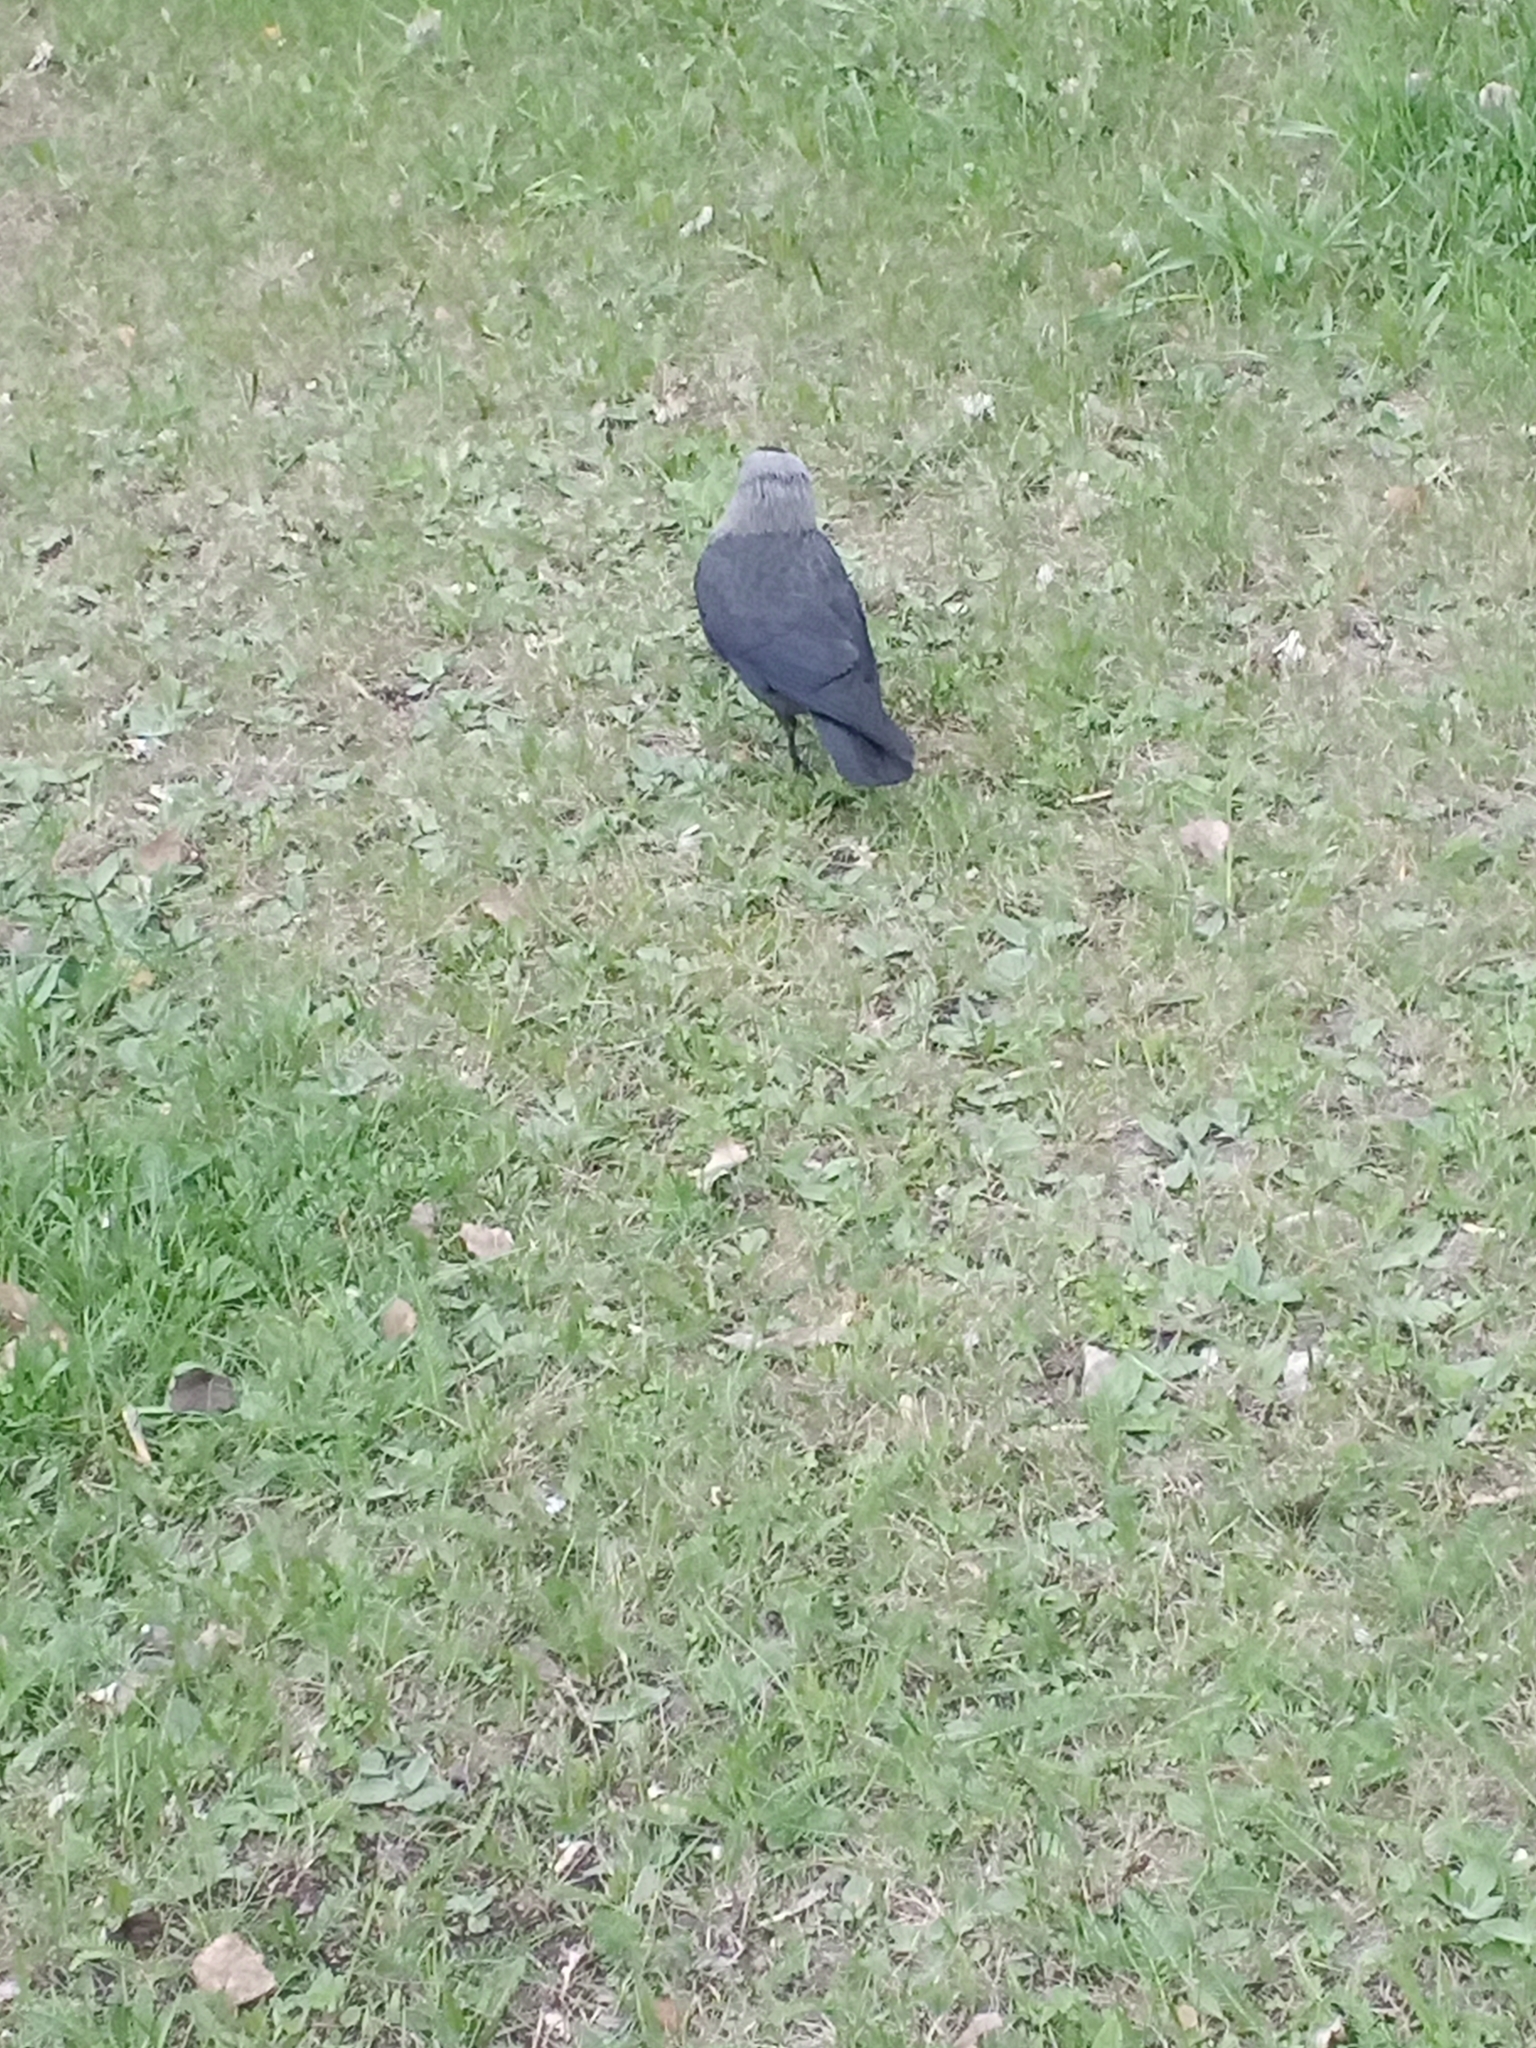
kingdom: Animalia
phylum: Chordata
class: Aves
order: Passeriformes
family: Corvidae
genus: Coloeus
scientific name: Coloeus monedula
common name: Western jackdaw
